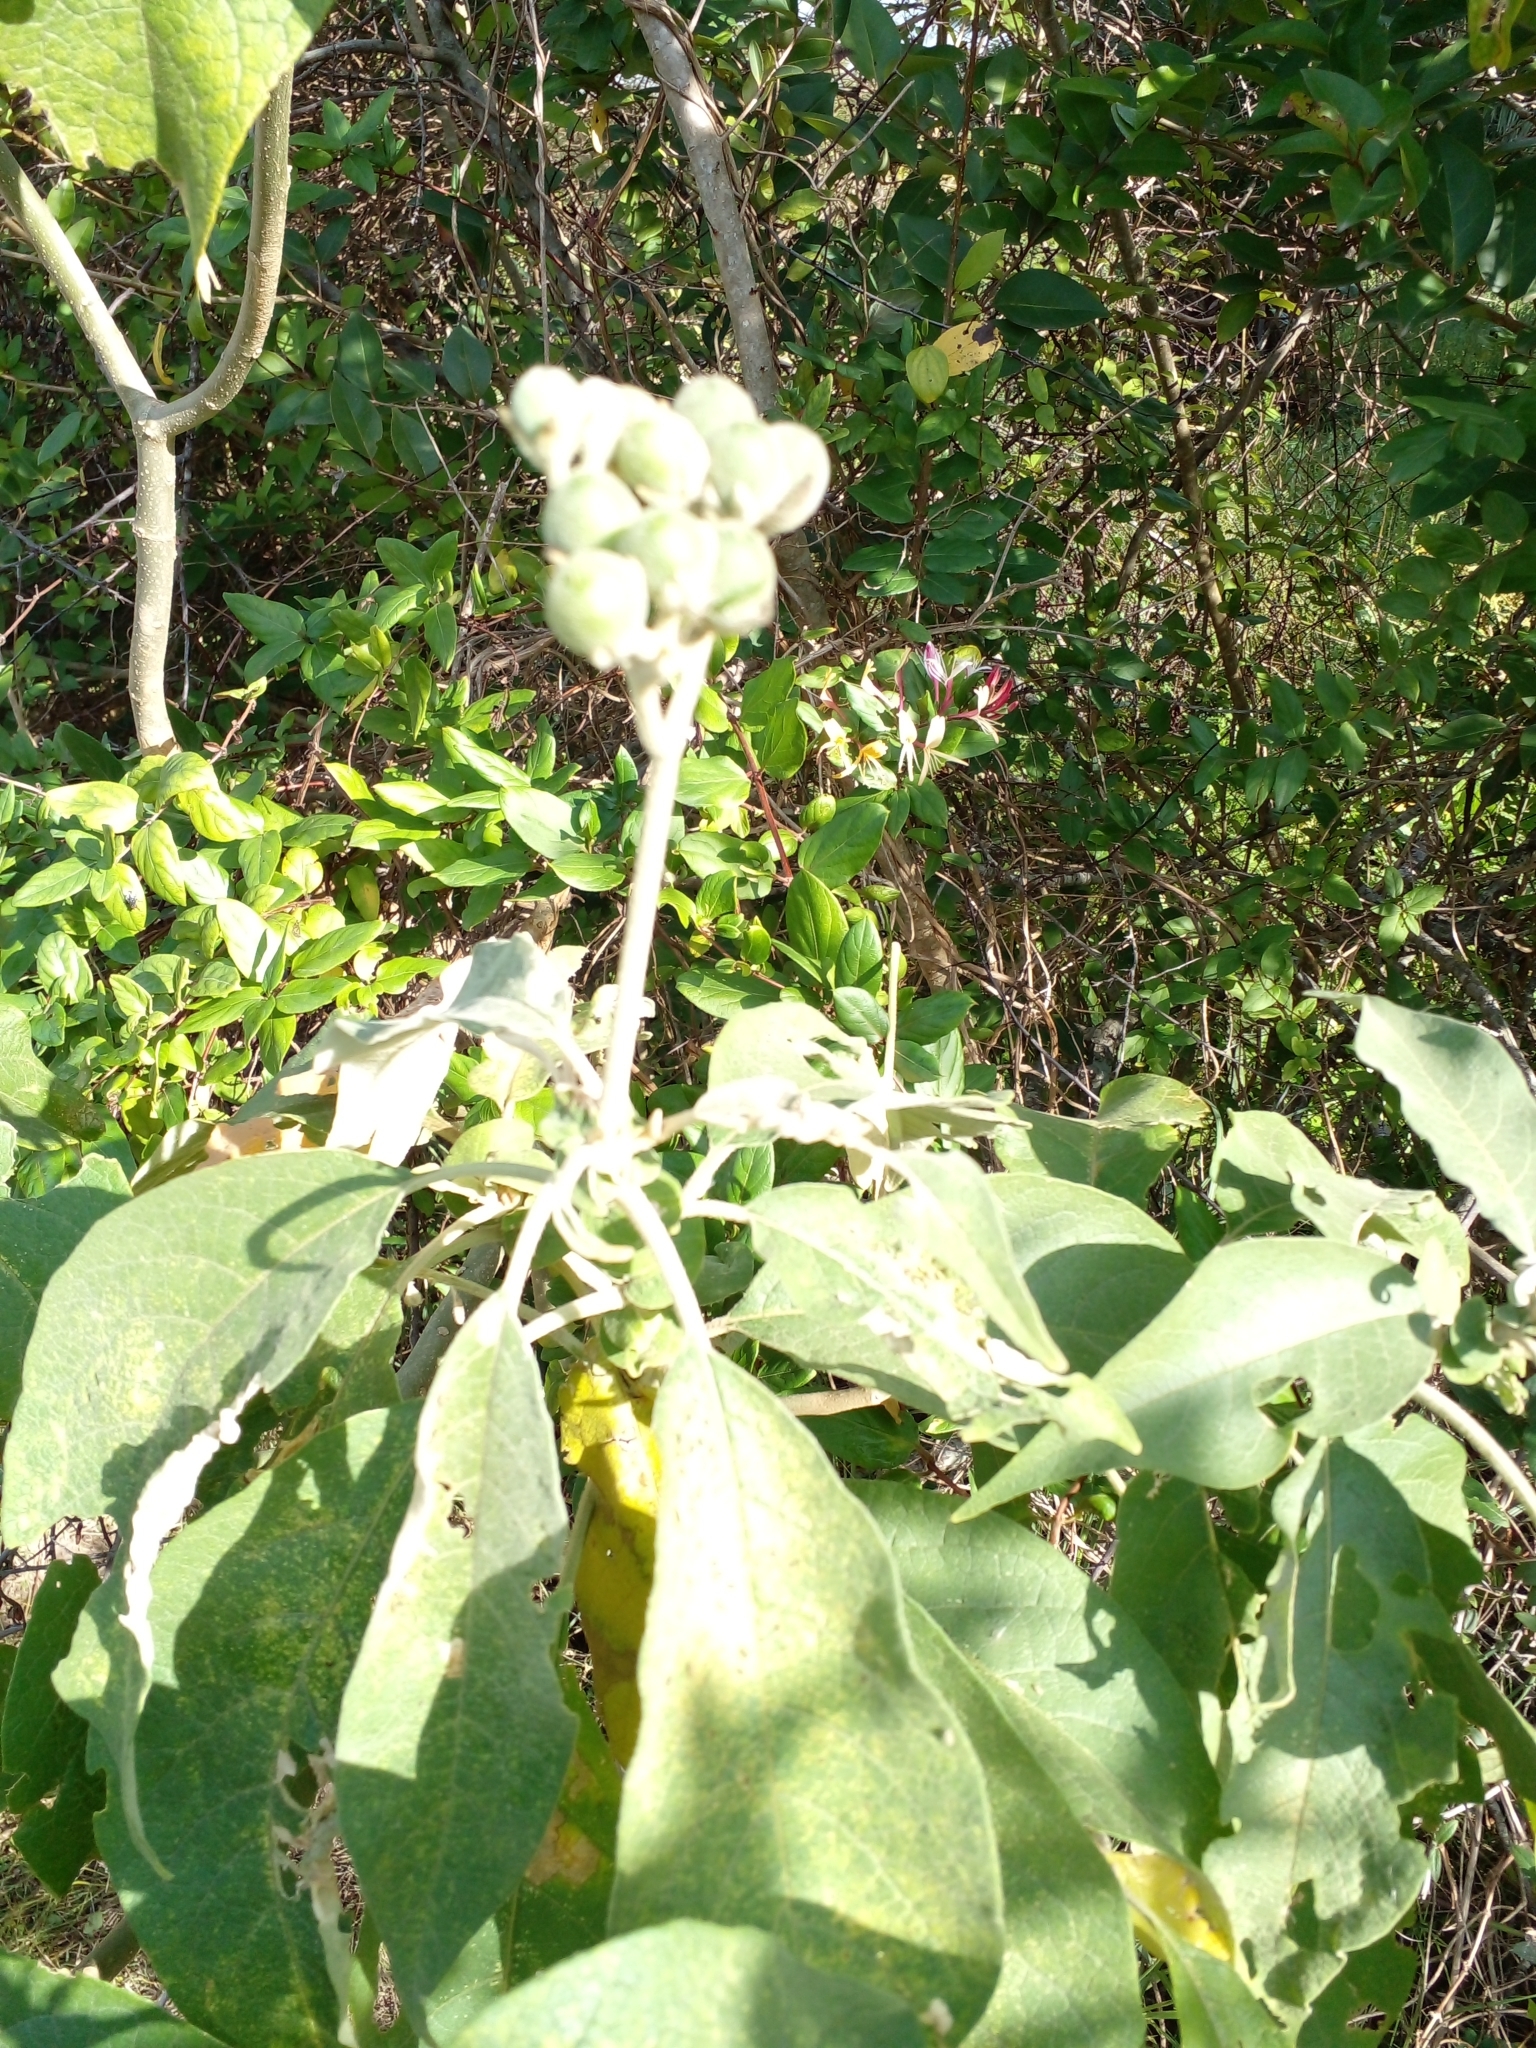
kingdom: Plantae
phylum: Tracheophyta
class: Magnoliopsida
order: Solanales
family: Solanaceae
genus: Solanum
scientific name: Solanum mauritianum
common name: Earleaf nightshade
